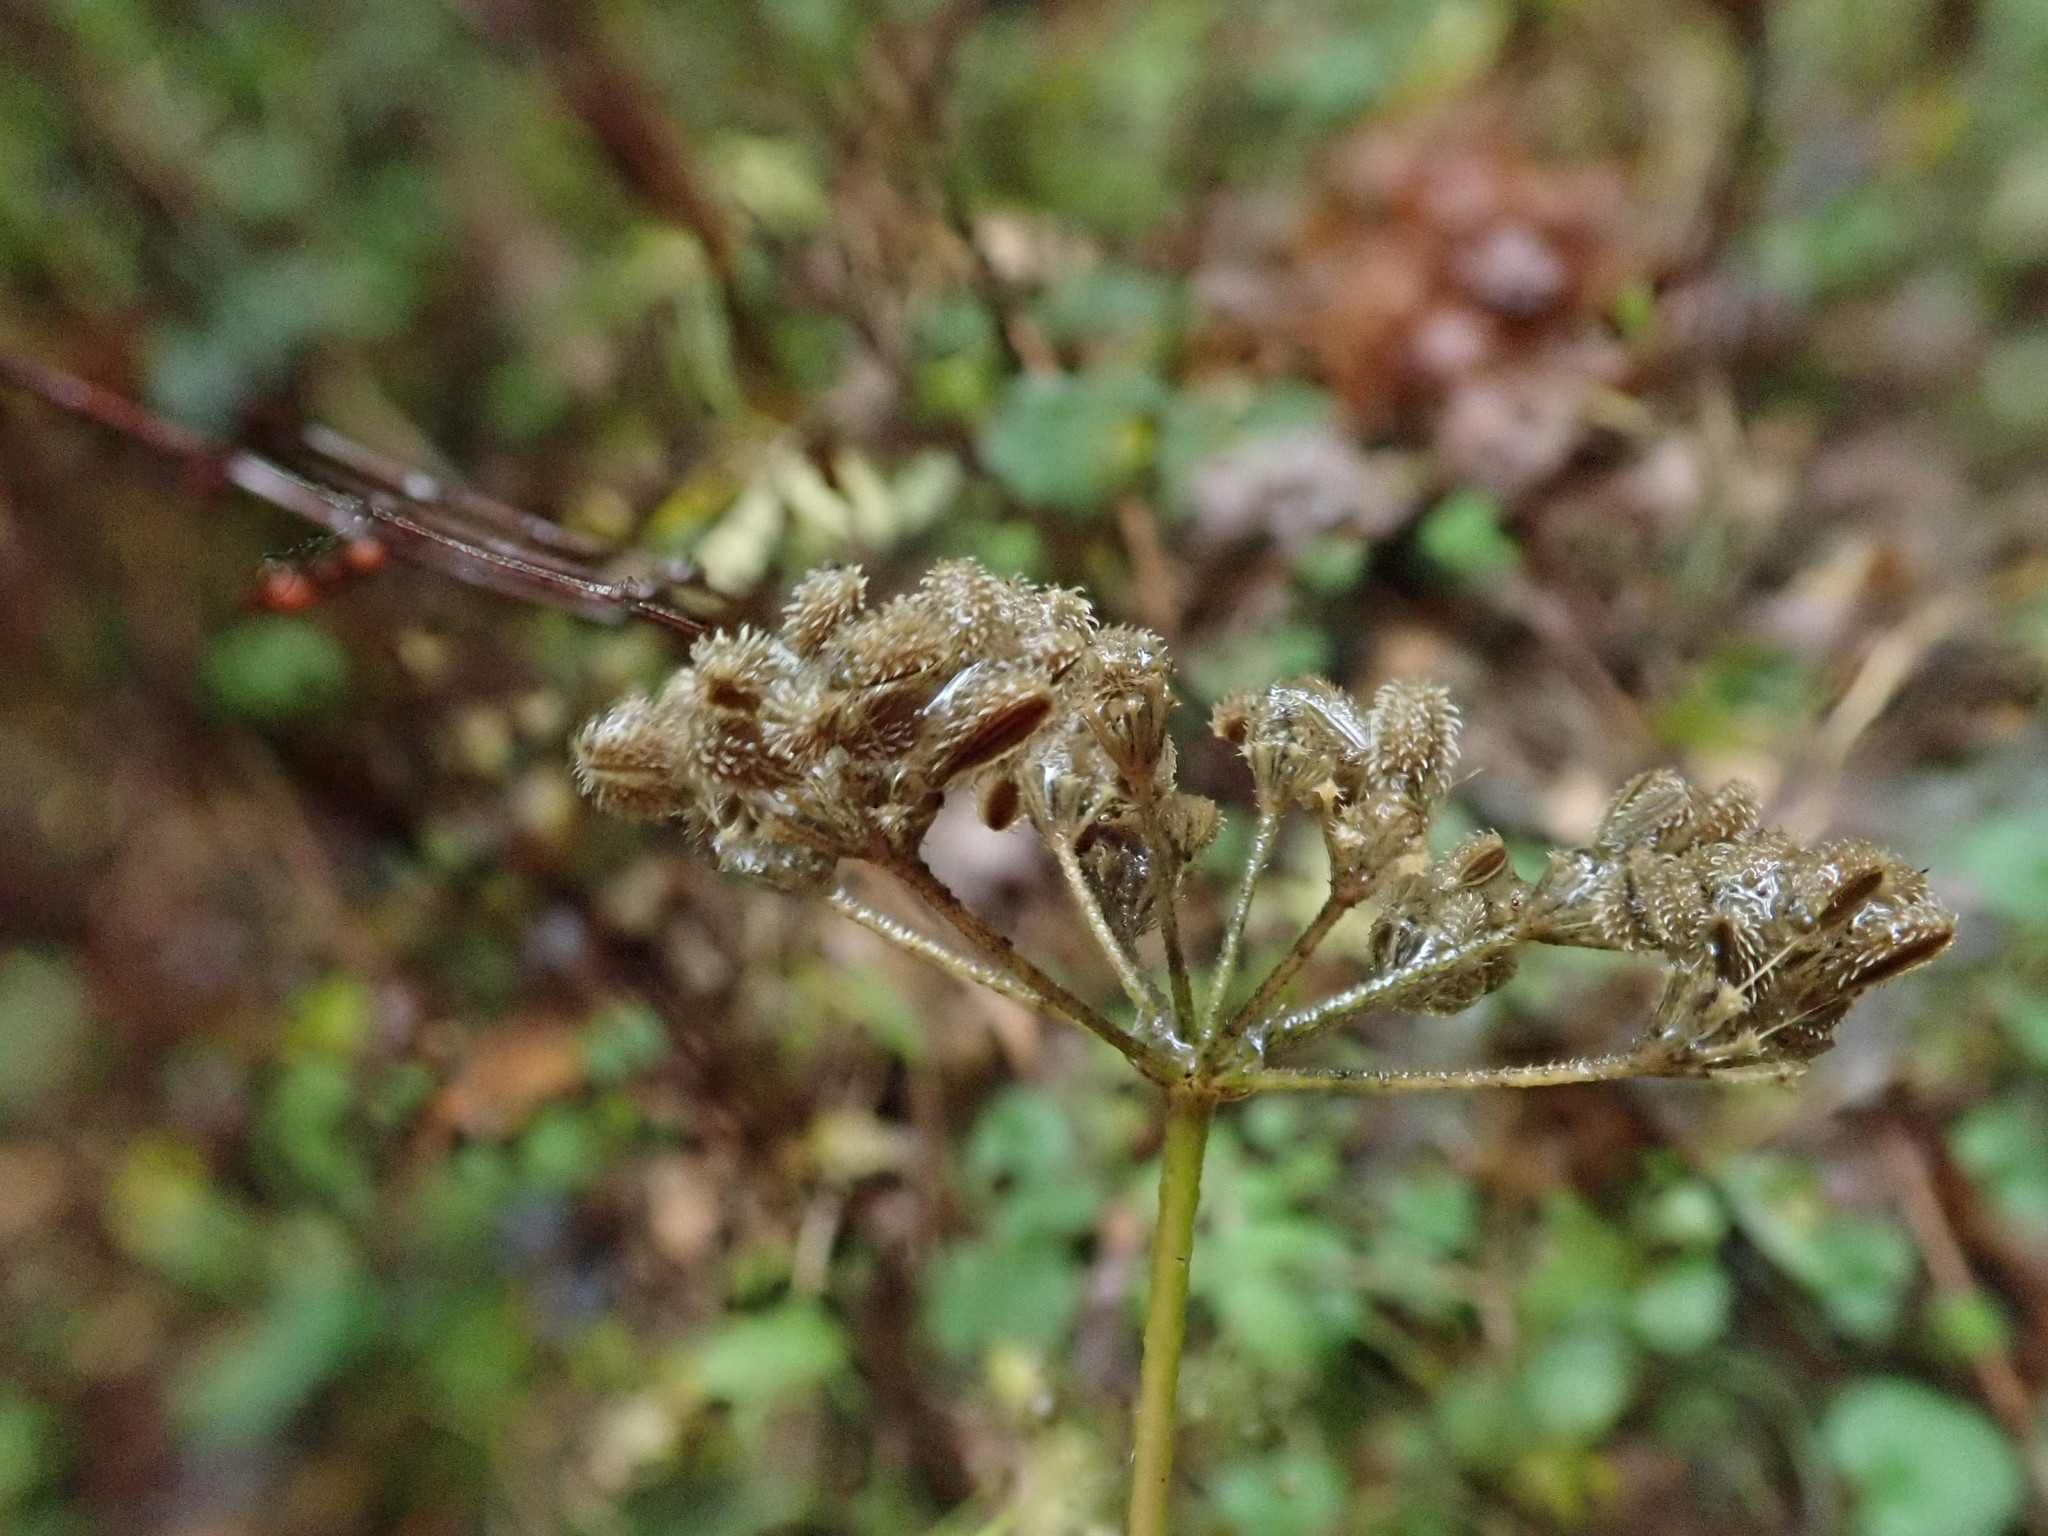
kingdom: Plantae
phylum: Tracheophyta
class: Magnoliopsida
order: Apiales
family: Apiaceae
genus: Torilis
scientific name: Torilis japonica
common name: Upright hedge-parsley
